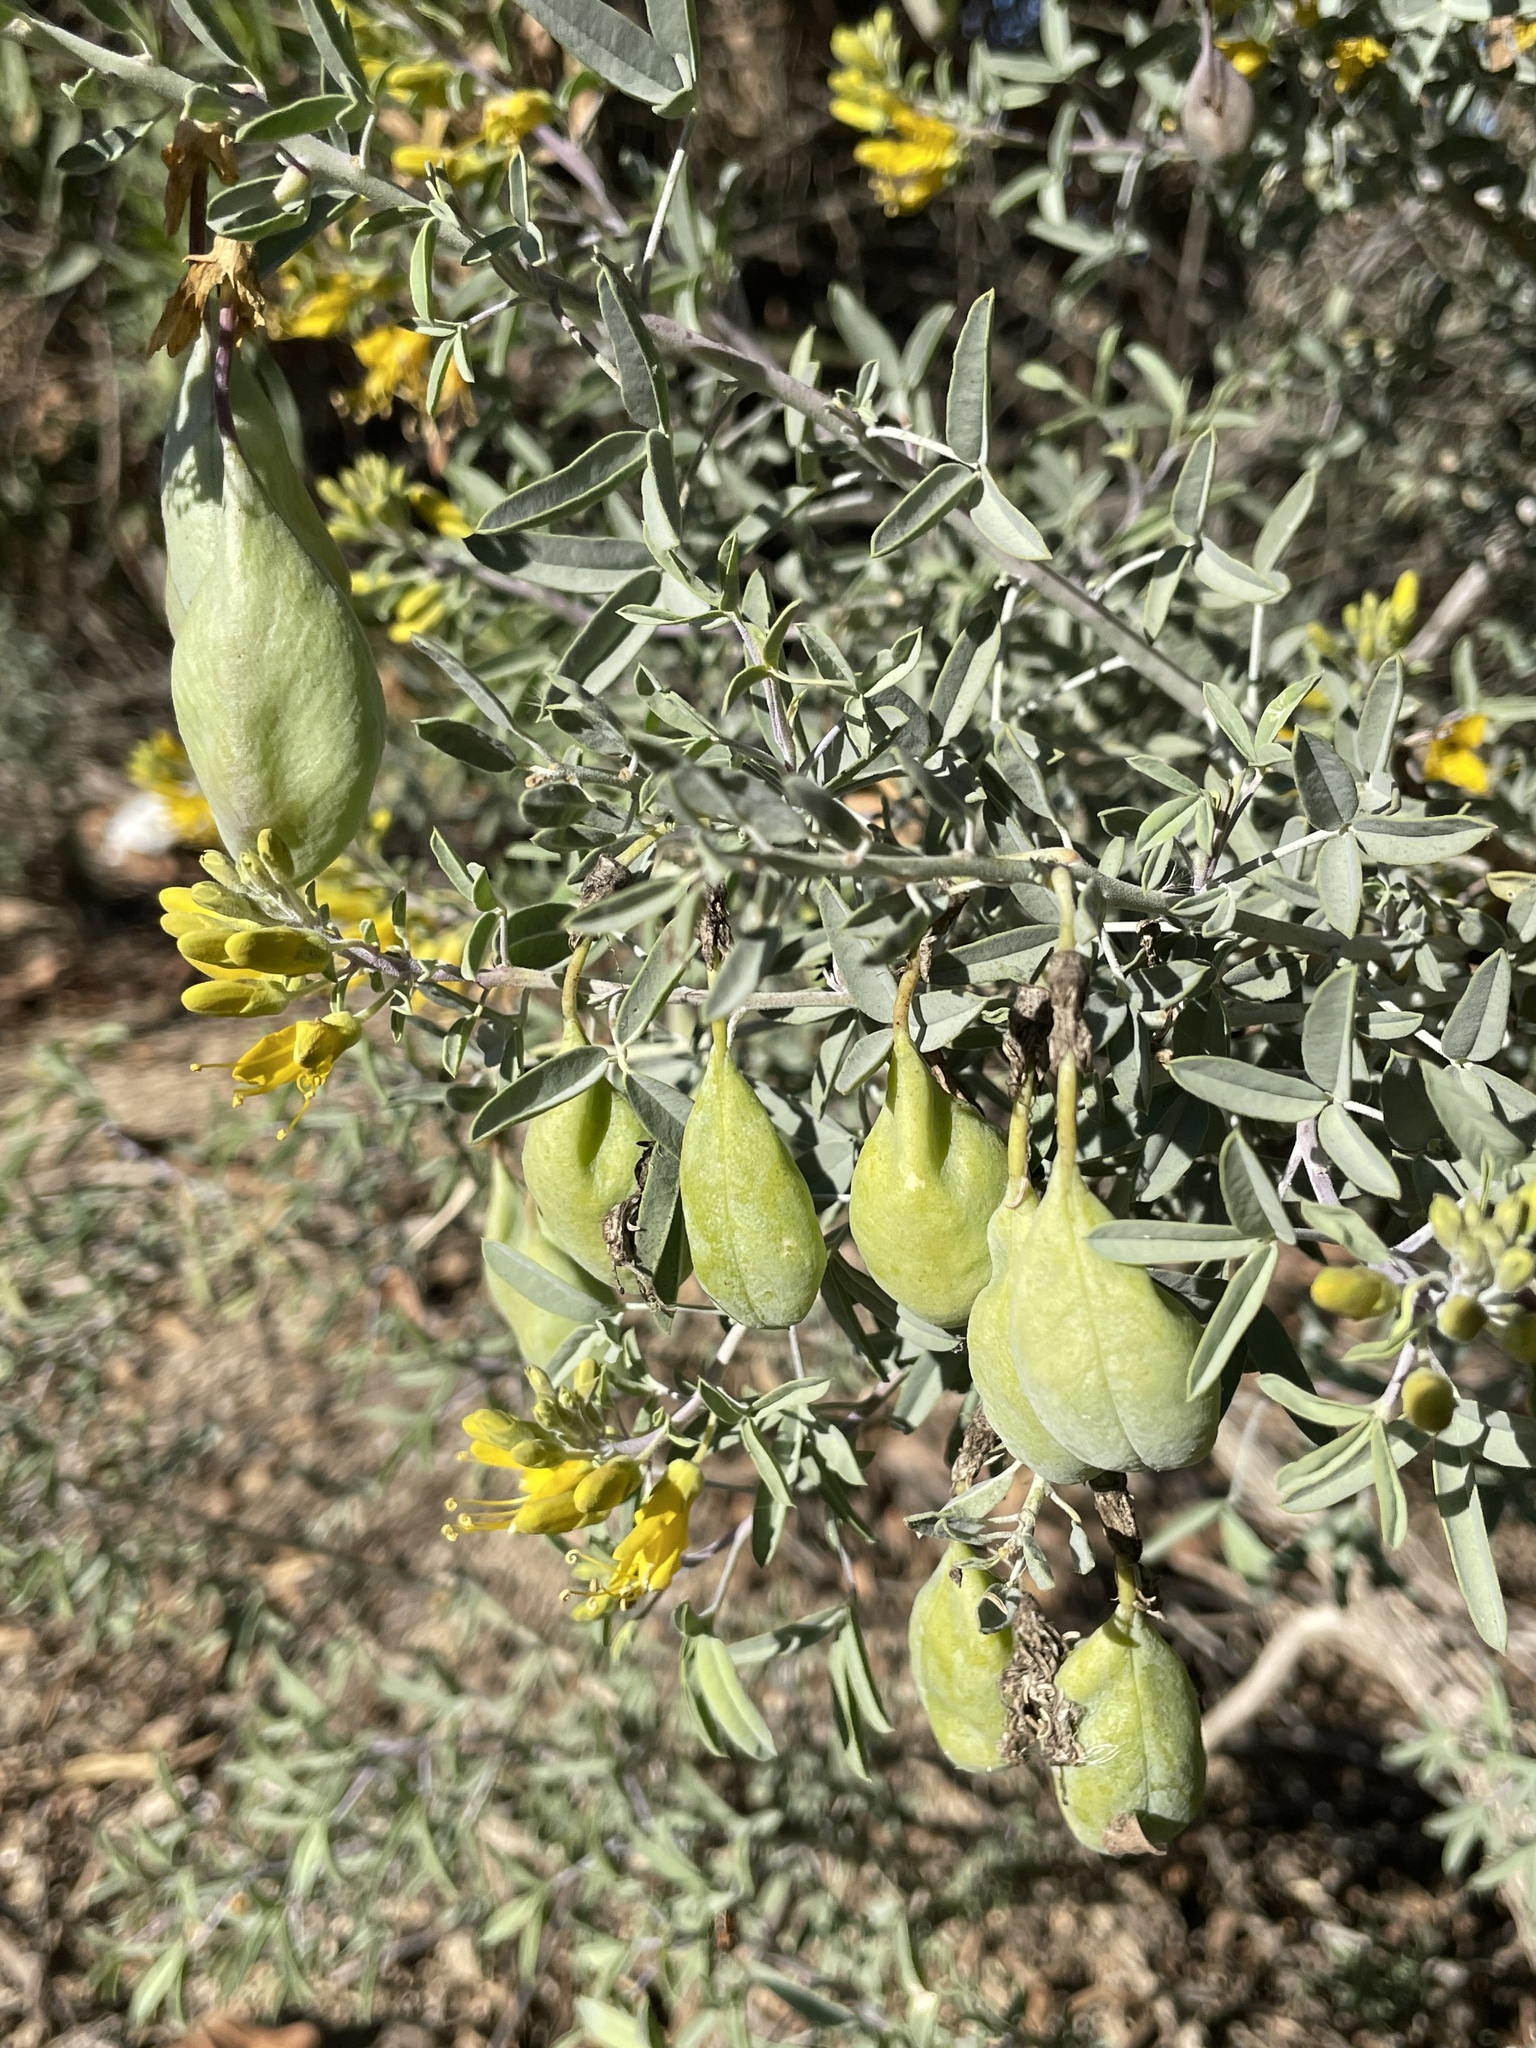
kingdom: Plantae
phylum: Tracheophyta
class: Magnoliopsida
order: Brassicales
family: Cleomaceae
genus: Cleomella
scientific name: Cleomella arborea
